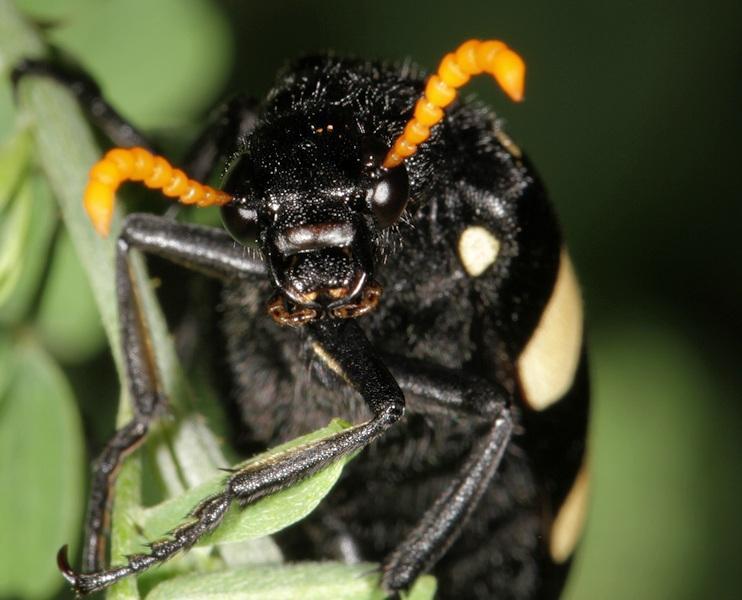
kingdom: Animalia
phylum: Arthropoda
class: Insecta
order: Coleoptera
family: Meloidae
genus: Hycleus
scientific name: Hycleus
